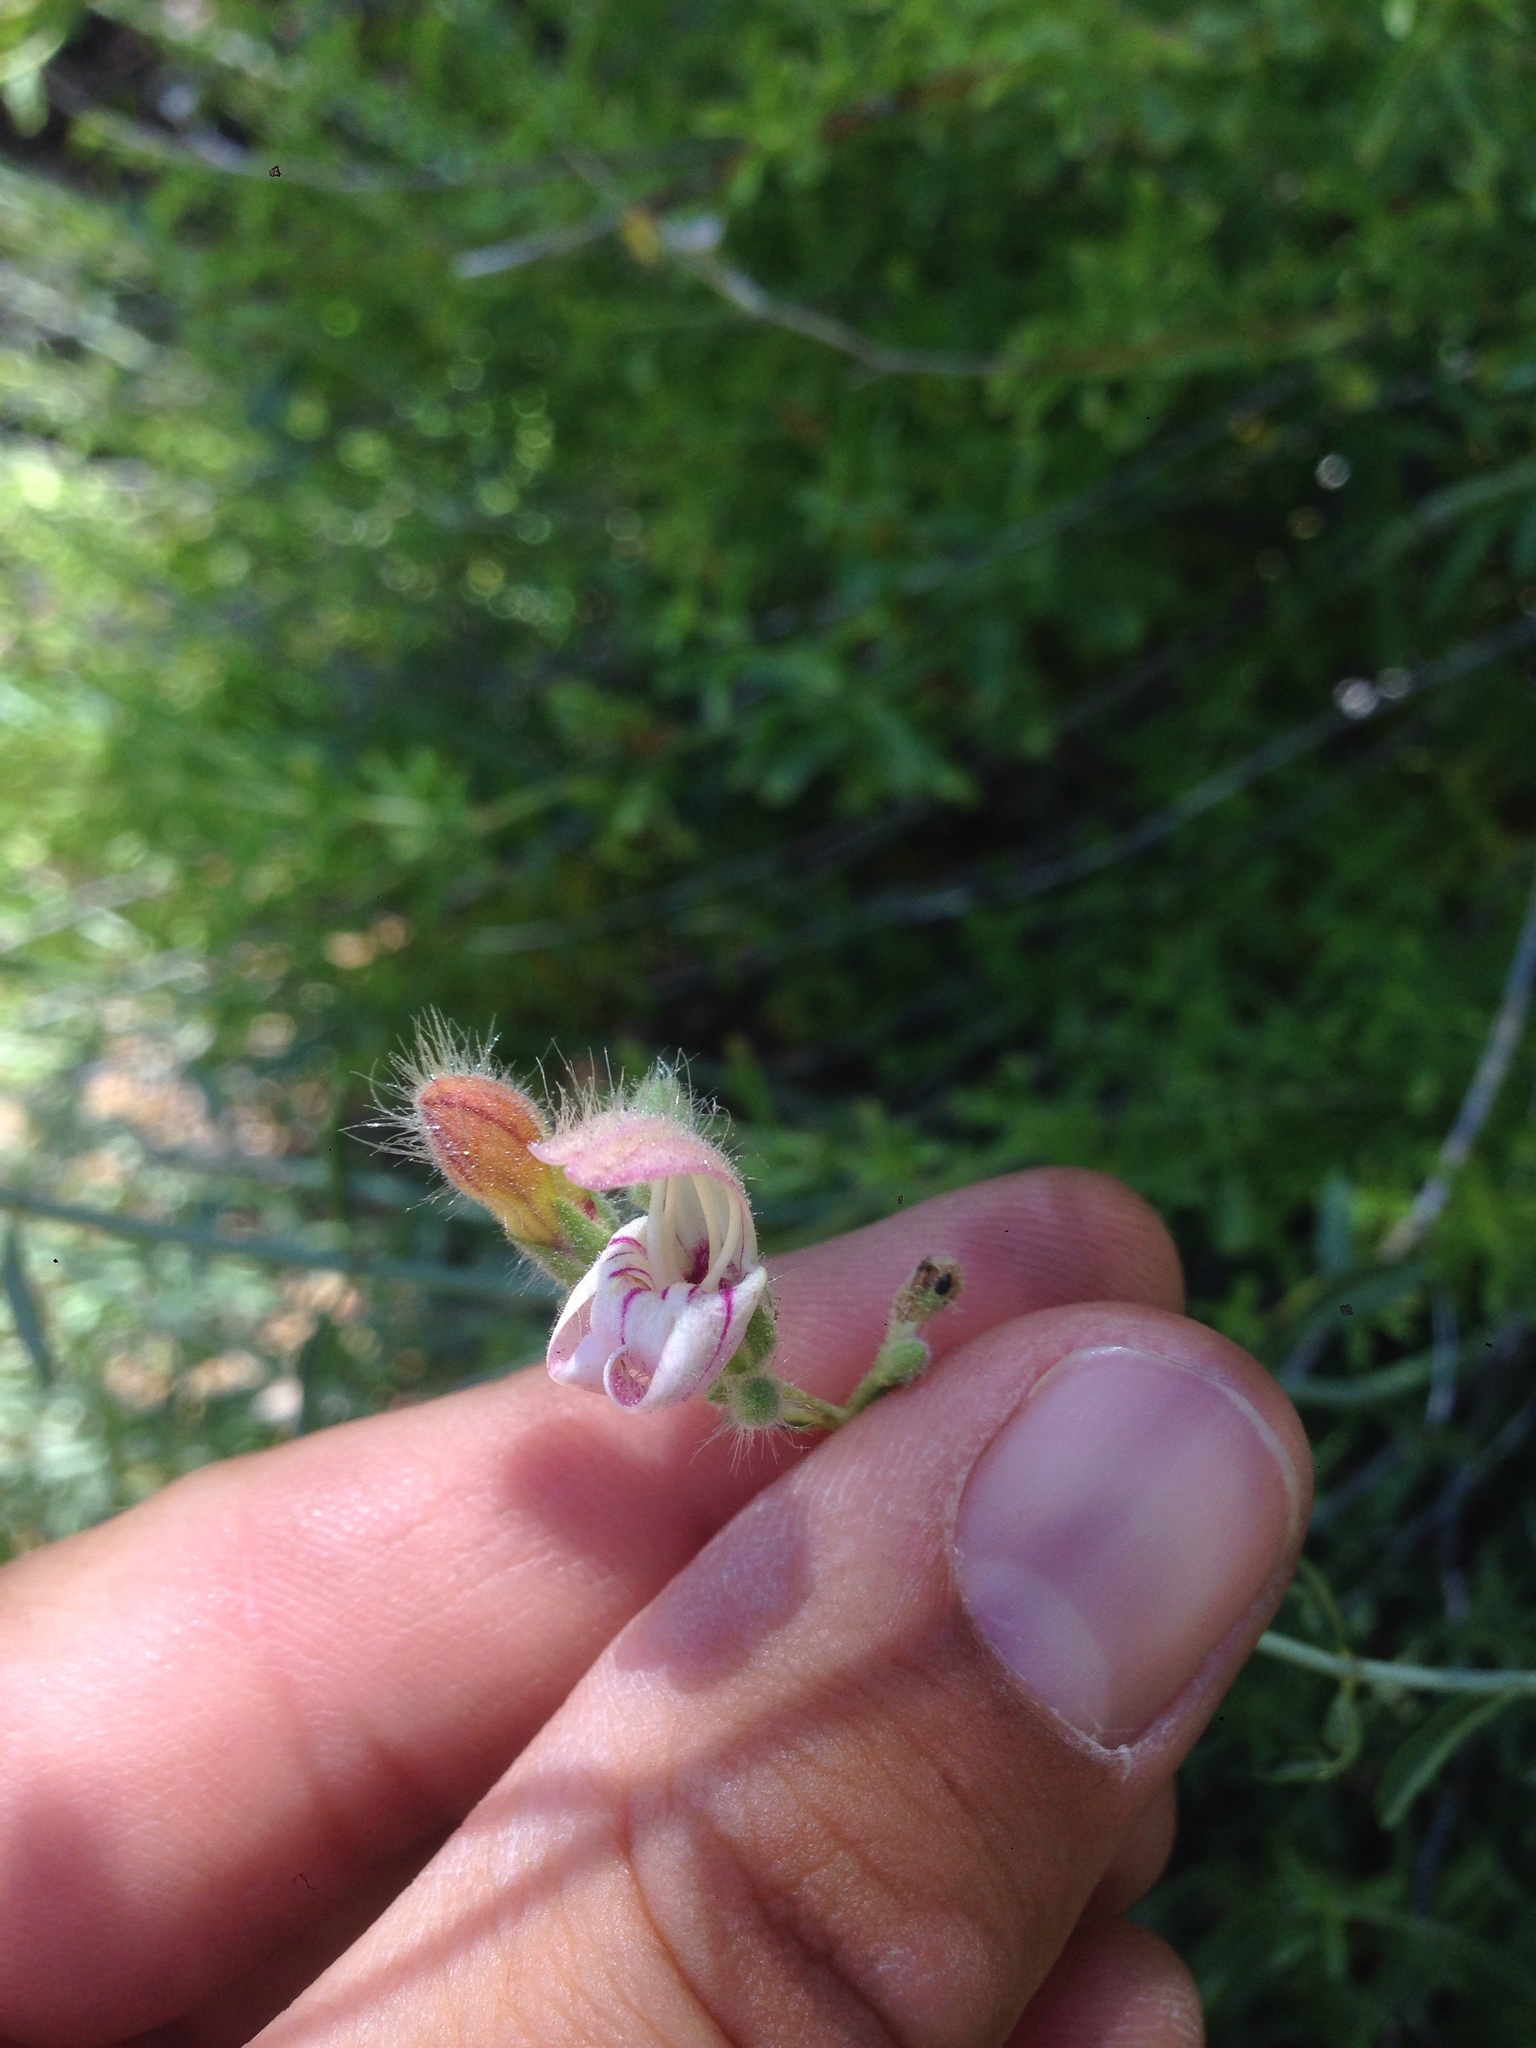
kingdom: Plantae
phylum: Tracheophyta
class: Magnoliopsida
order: Lamiales
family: Plantaginaceae
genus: Keckiella
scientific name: Keckiella breviflora
